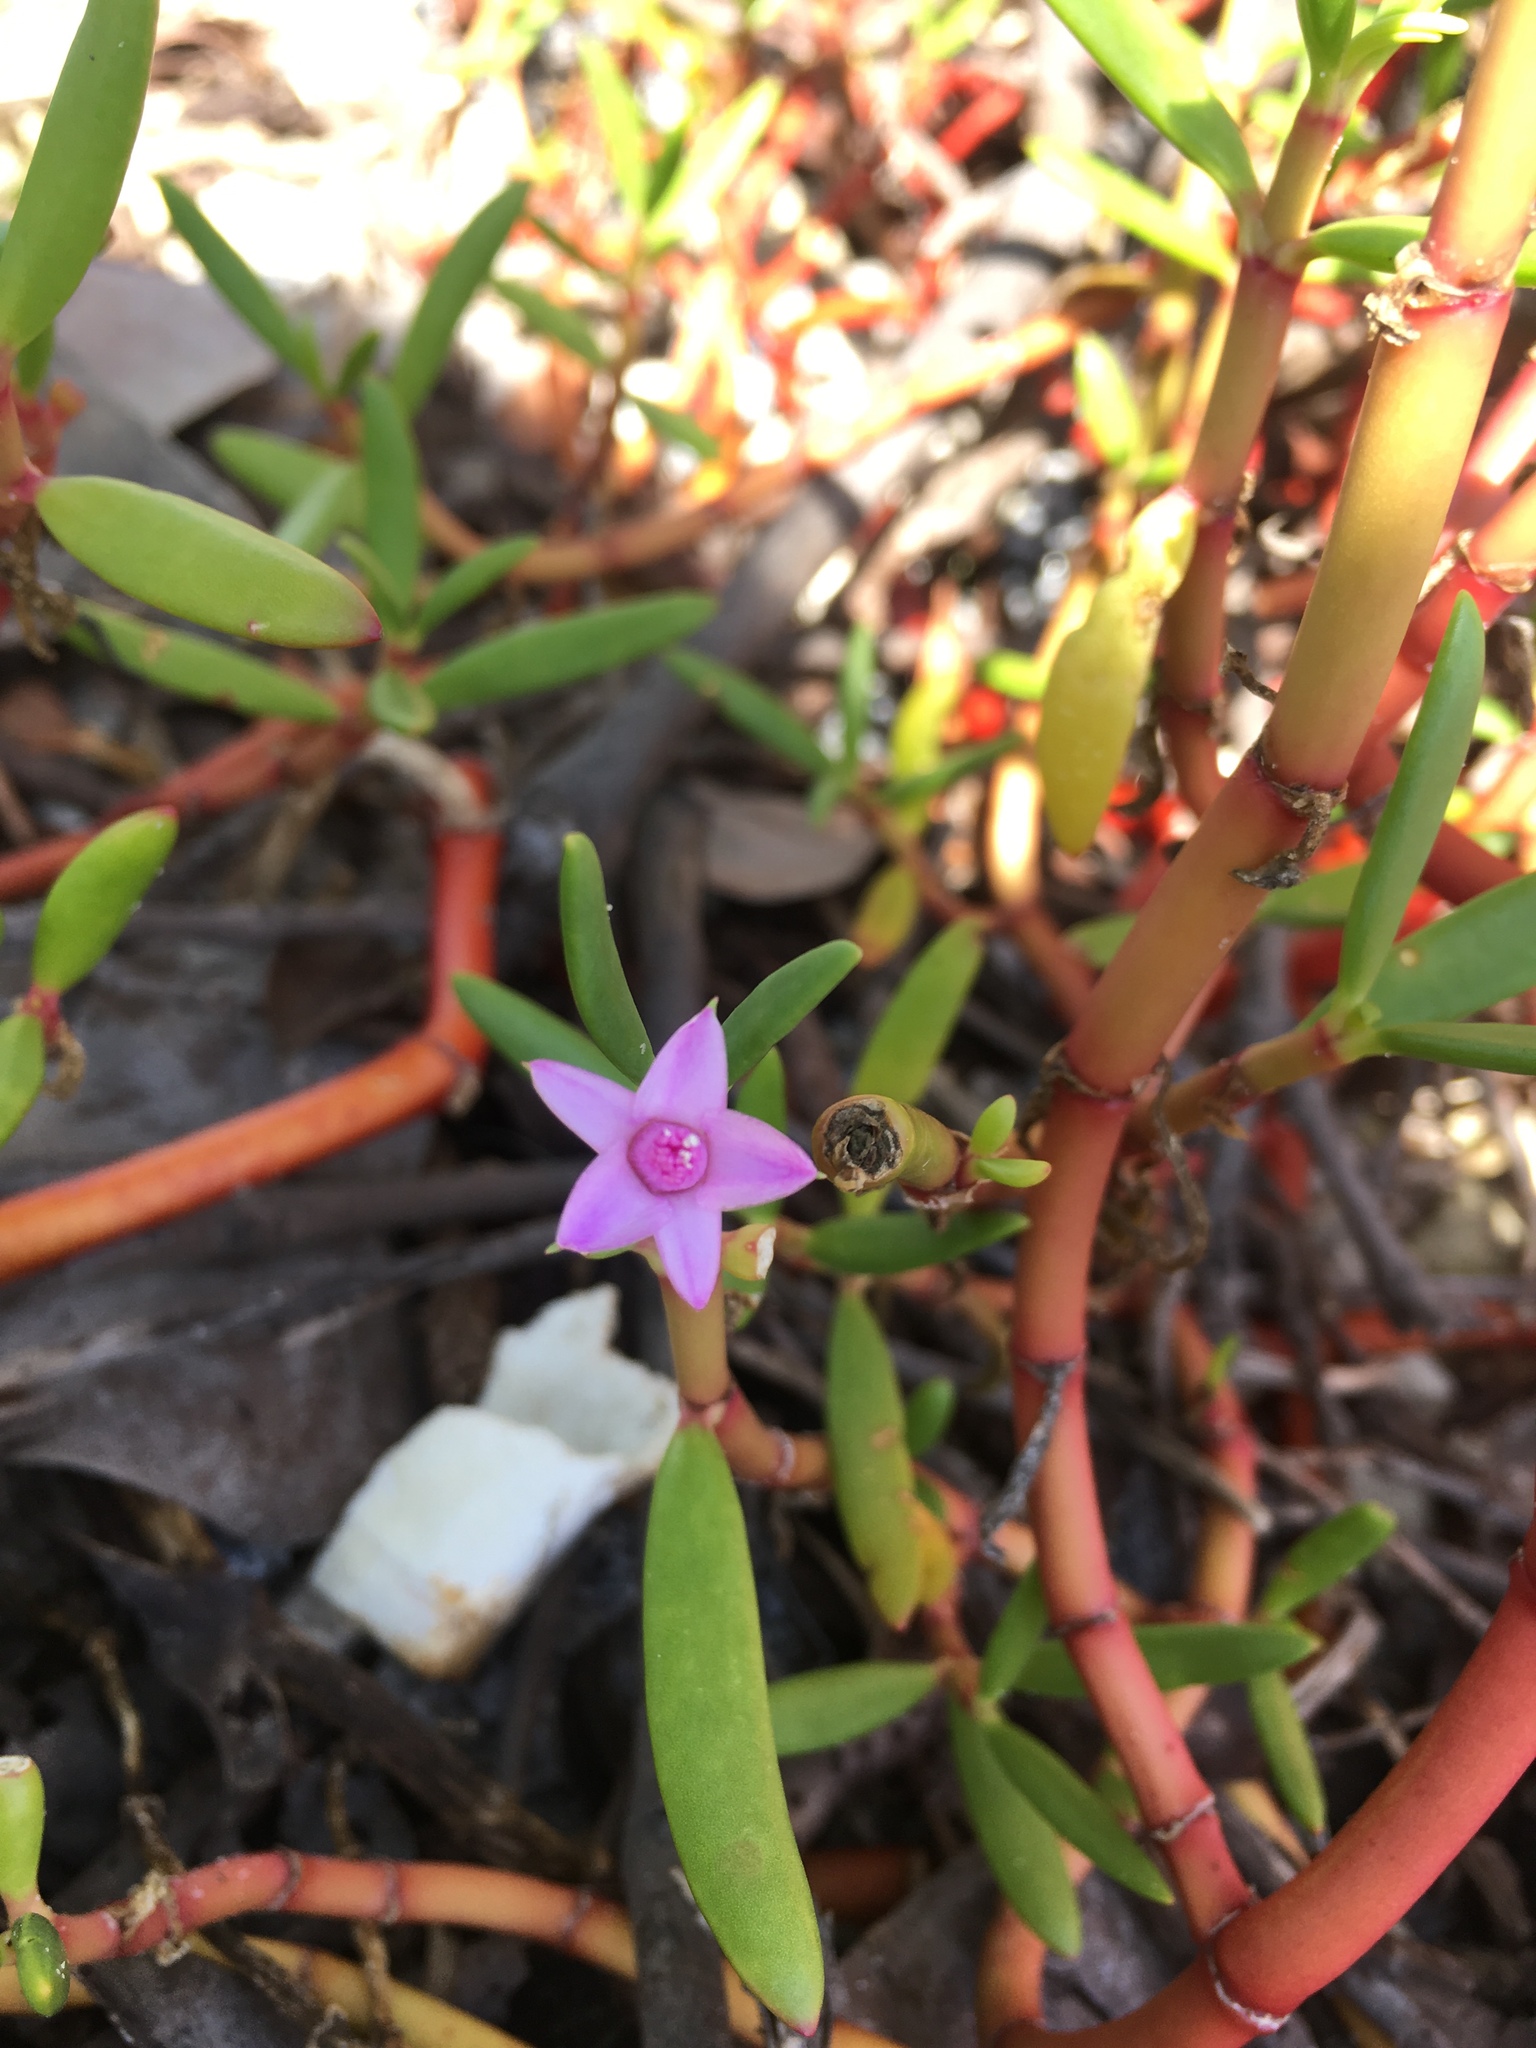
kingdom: Plantae
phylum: Tracheophyta
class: Magnoliopsida
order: Caryophyllales
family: Aizoaceae
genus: Sesuvium
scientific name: Sesuvium portulacastrum
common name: Sea-purslane
